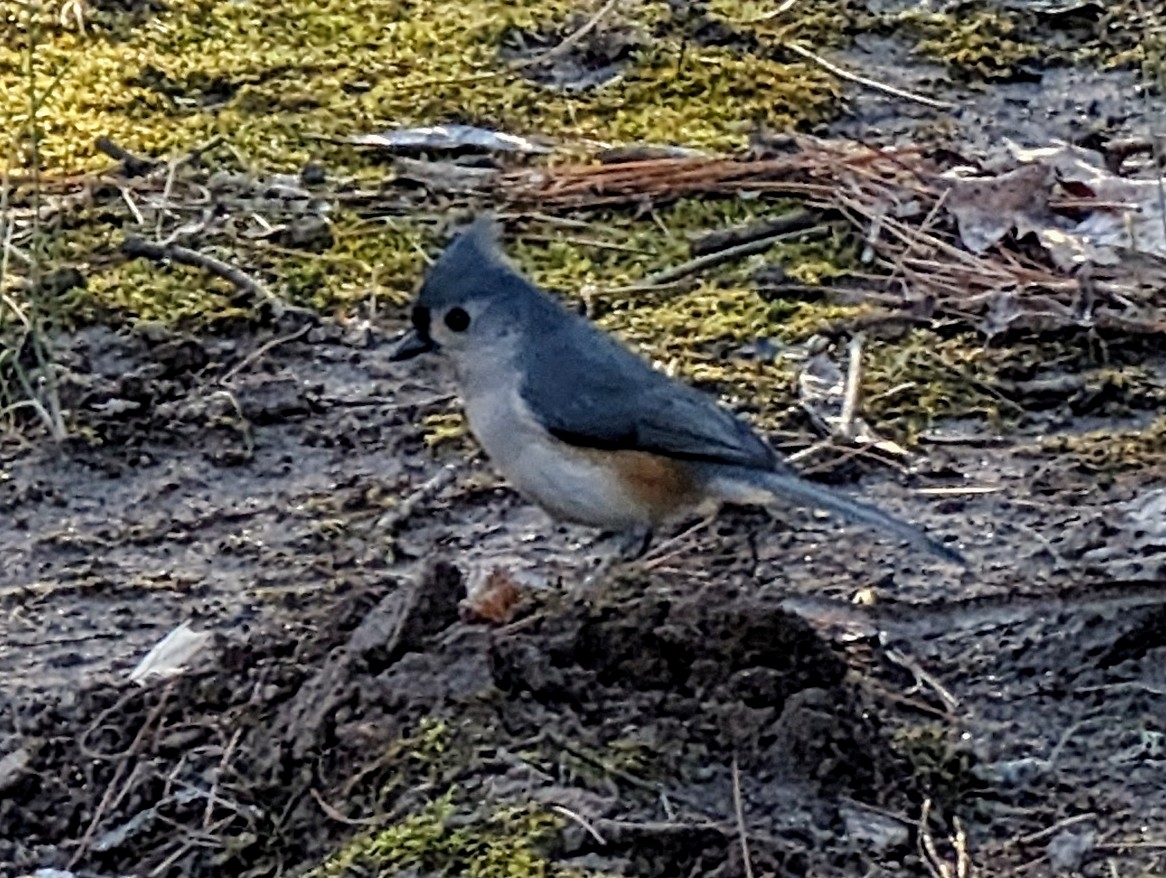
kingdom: Animalia
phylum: Chordata
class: Aves
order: Passeriformes
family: Paridae
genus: Baeolophus
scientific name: Baeolophus bicolor
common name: Tufted titmouse
